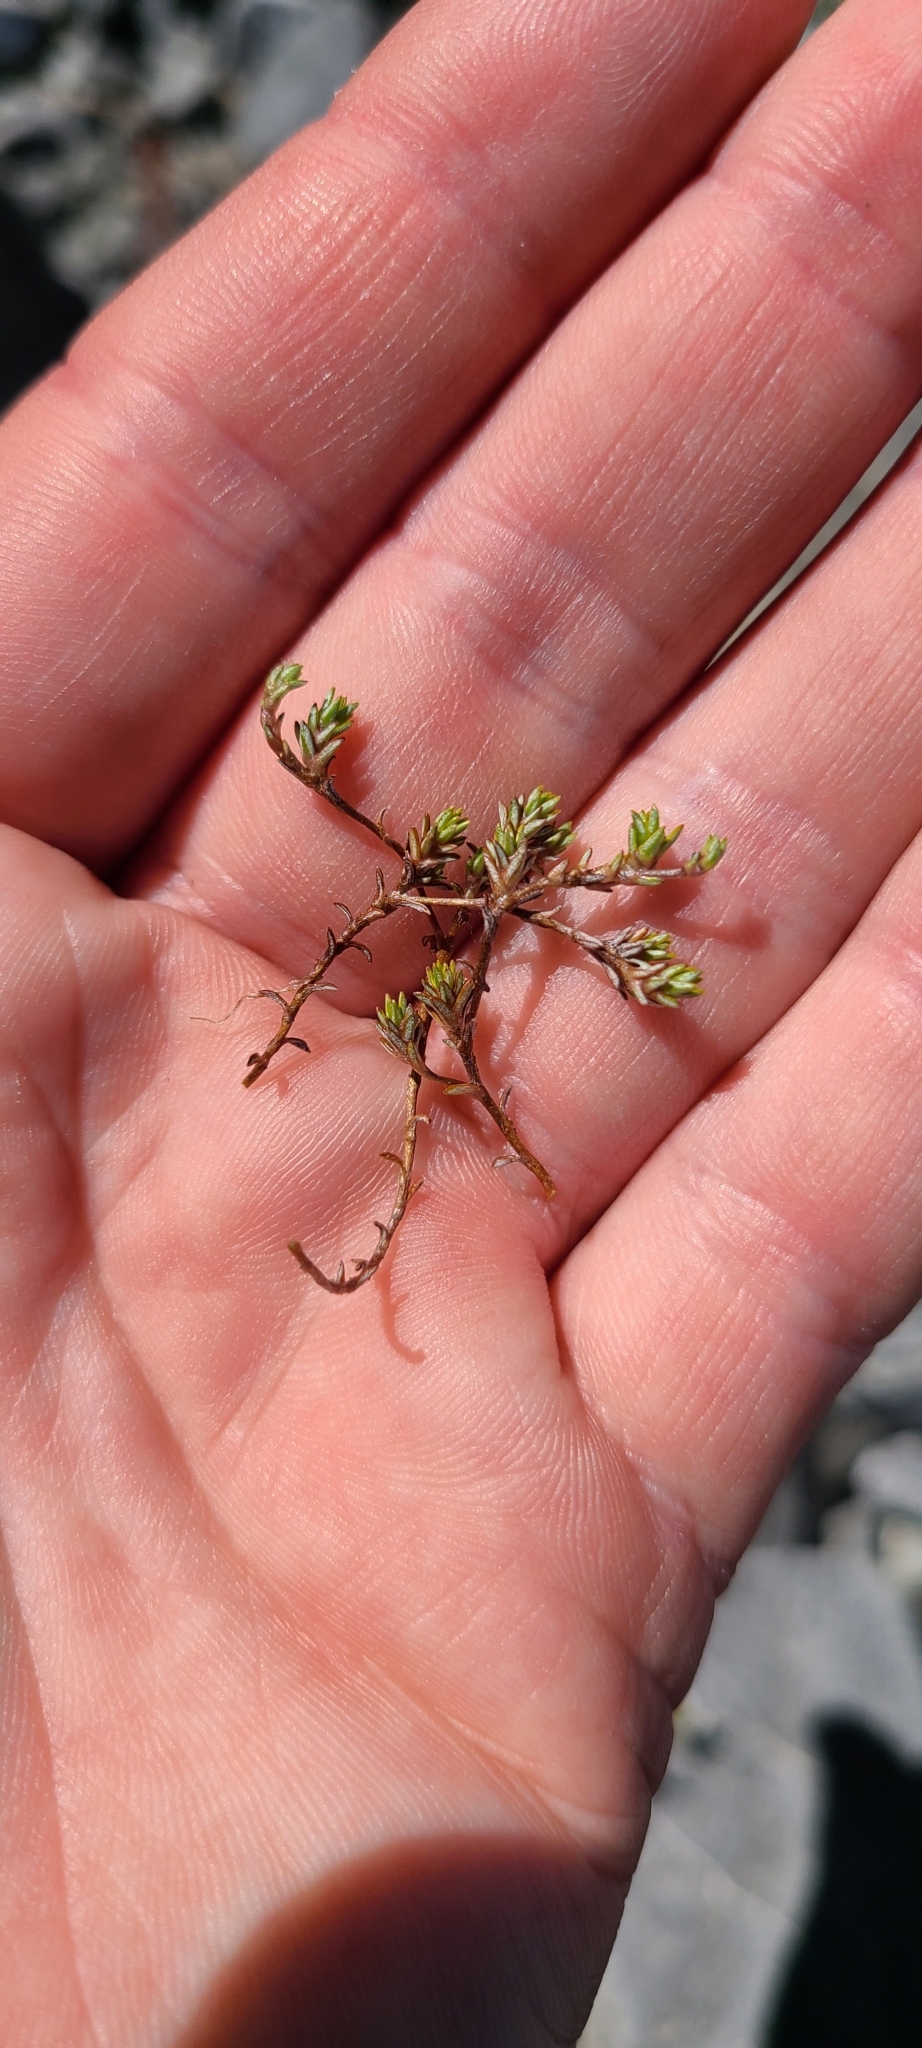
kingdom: Plantae
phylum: Tracheophyta
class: Magnoliopsida
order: Asterales
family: Asteraceae
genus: Raoulia
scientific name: Raoulia glabra
